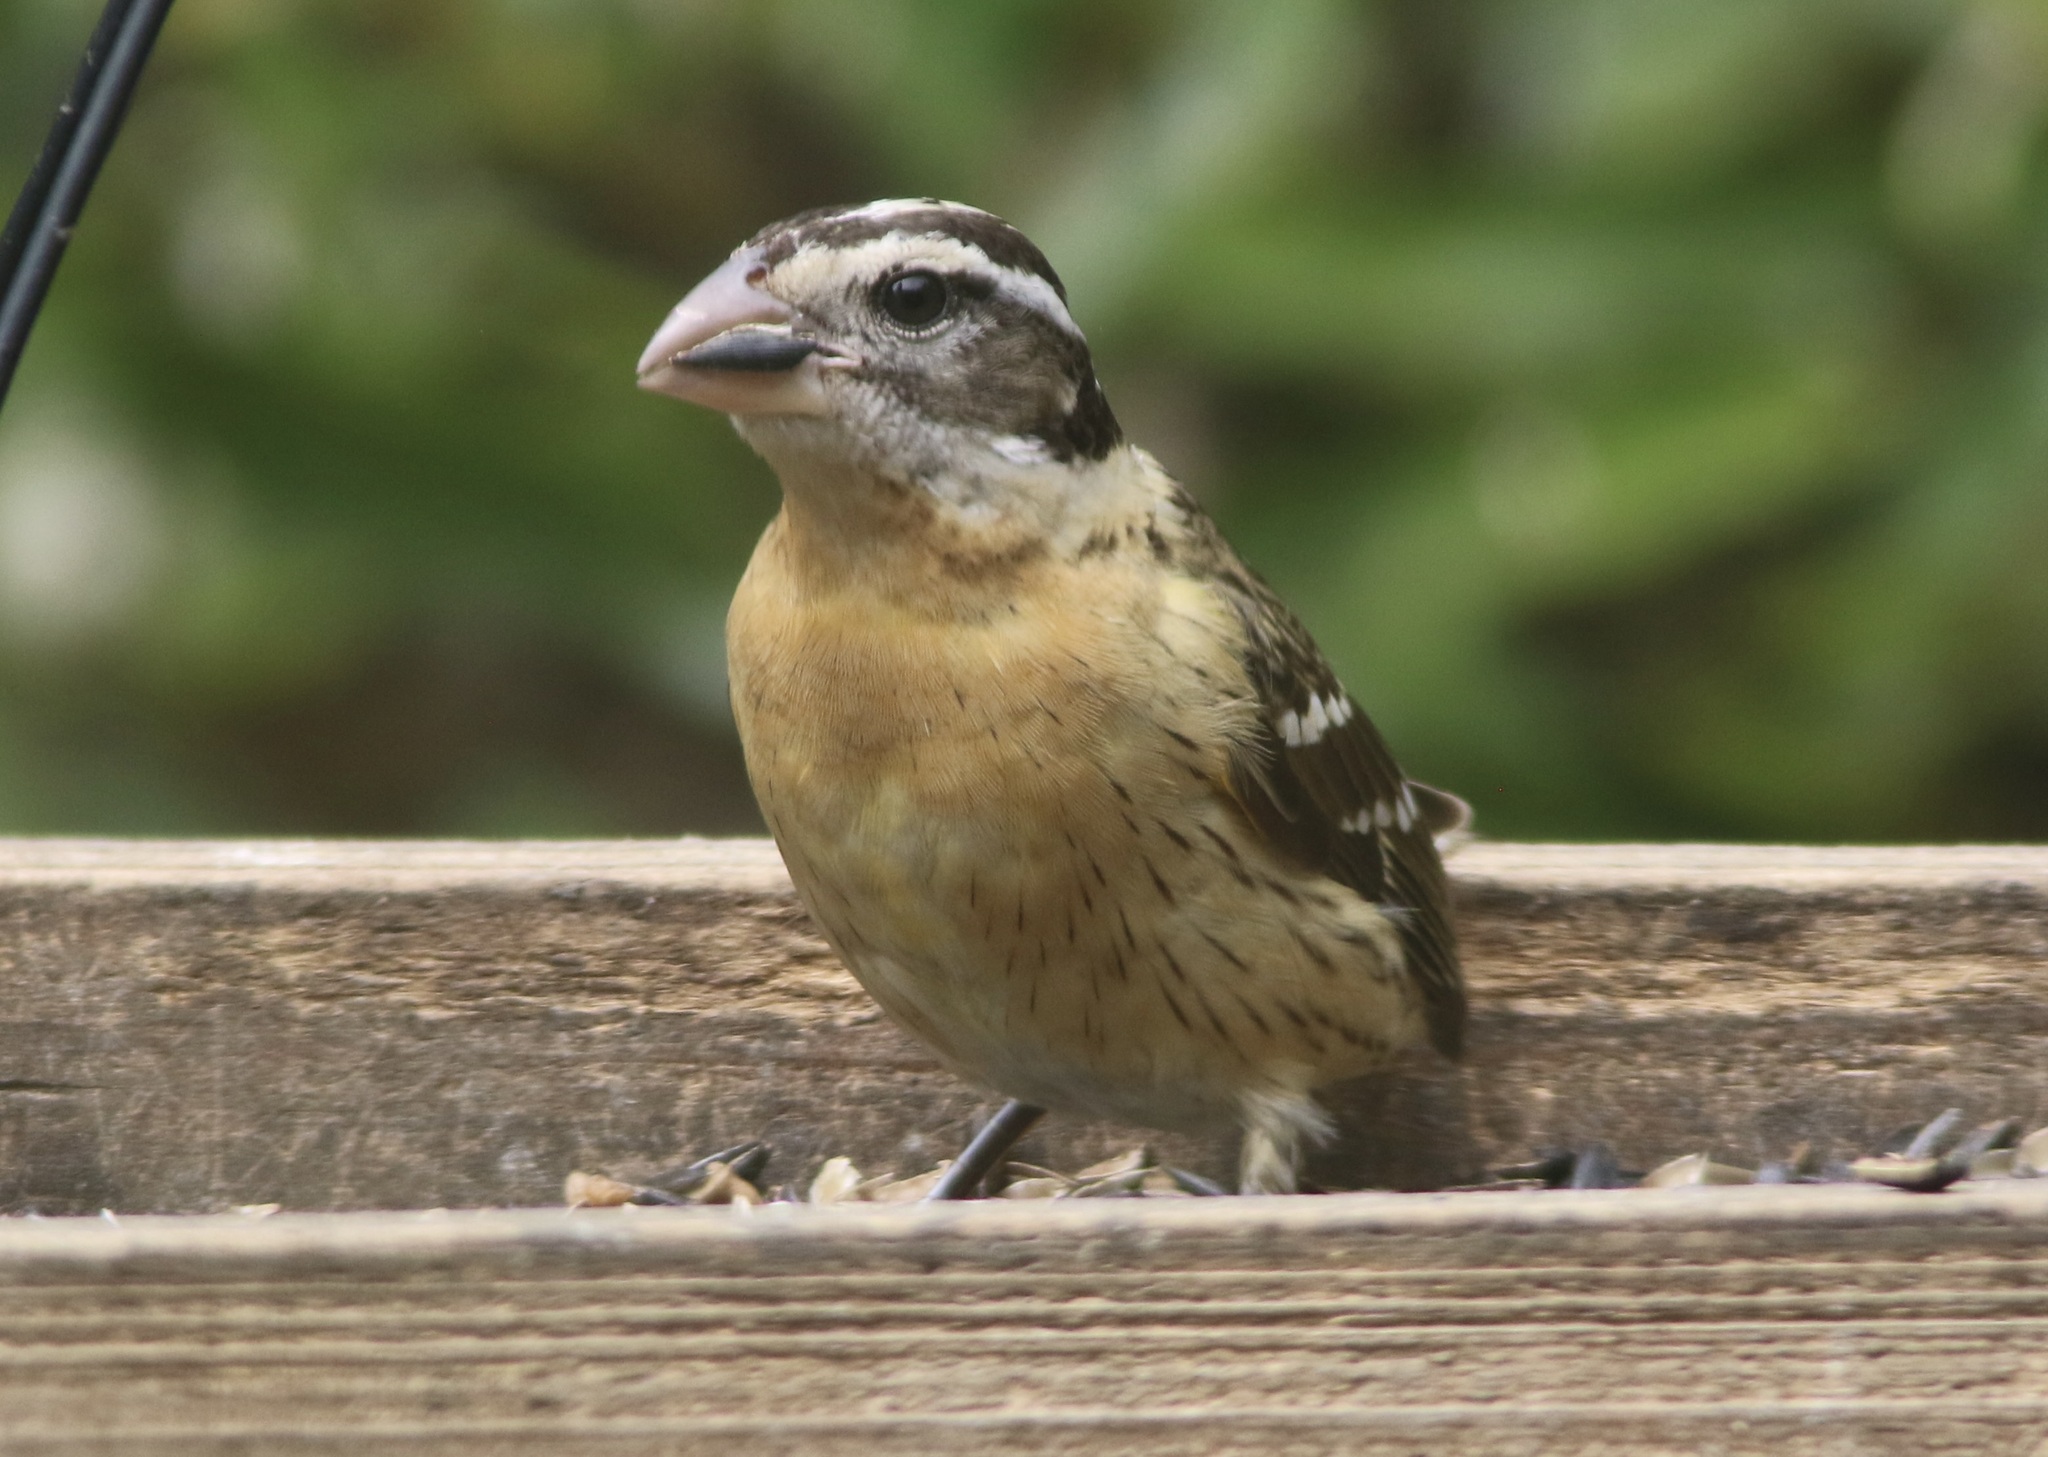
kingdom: Animalia
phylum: Chordata
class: Aves
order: Passeriformes
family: Cardinalidae
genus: Pheucticus
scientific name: Pheucticus melanocephalus
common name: Black-headed grosbeak
